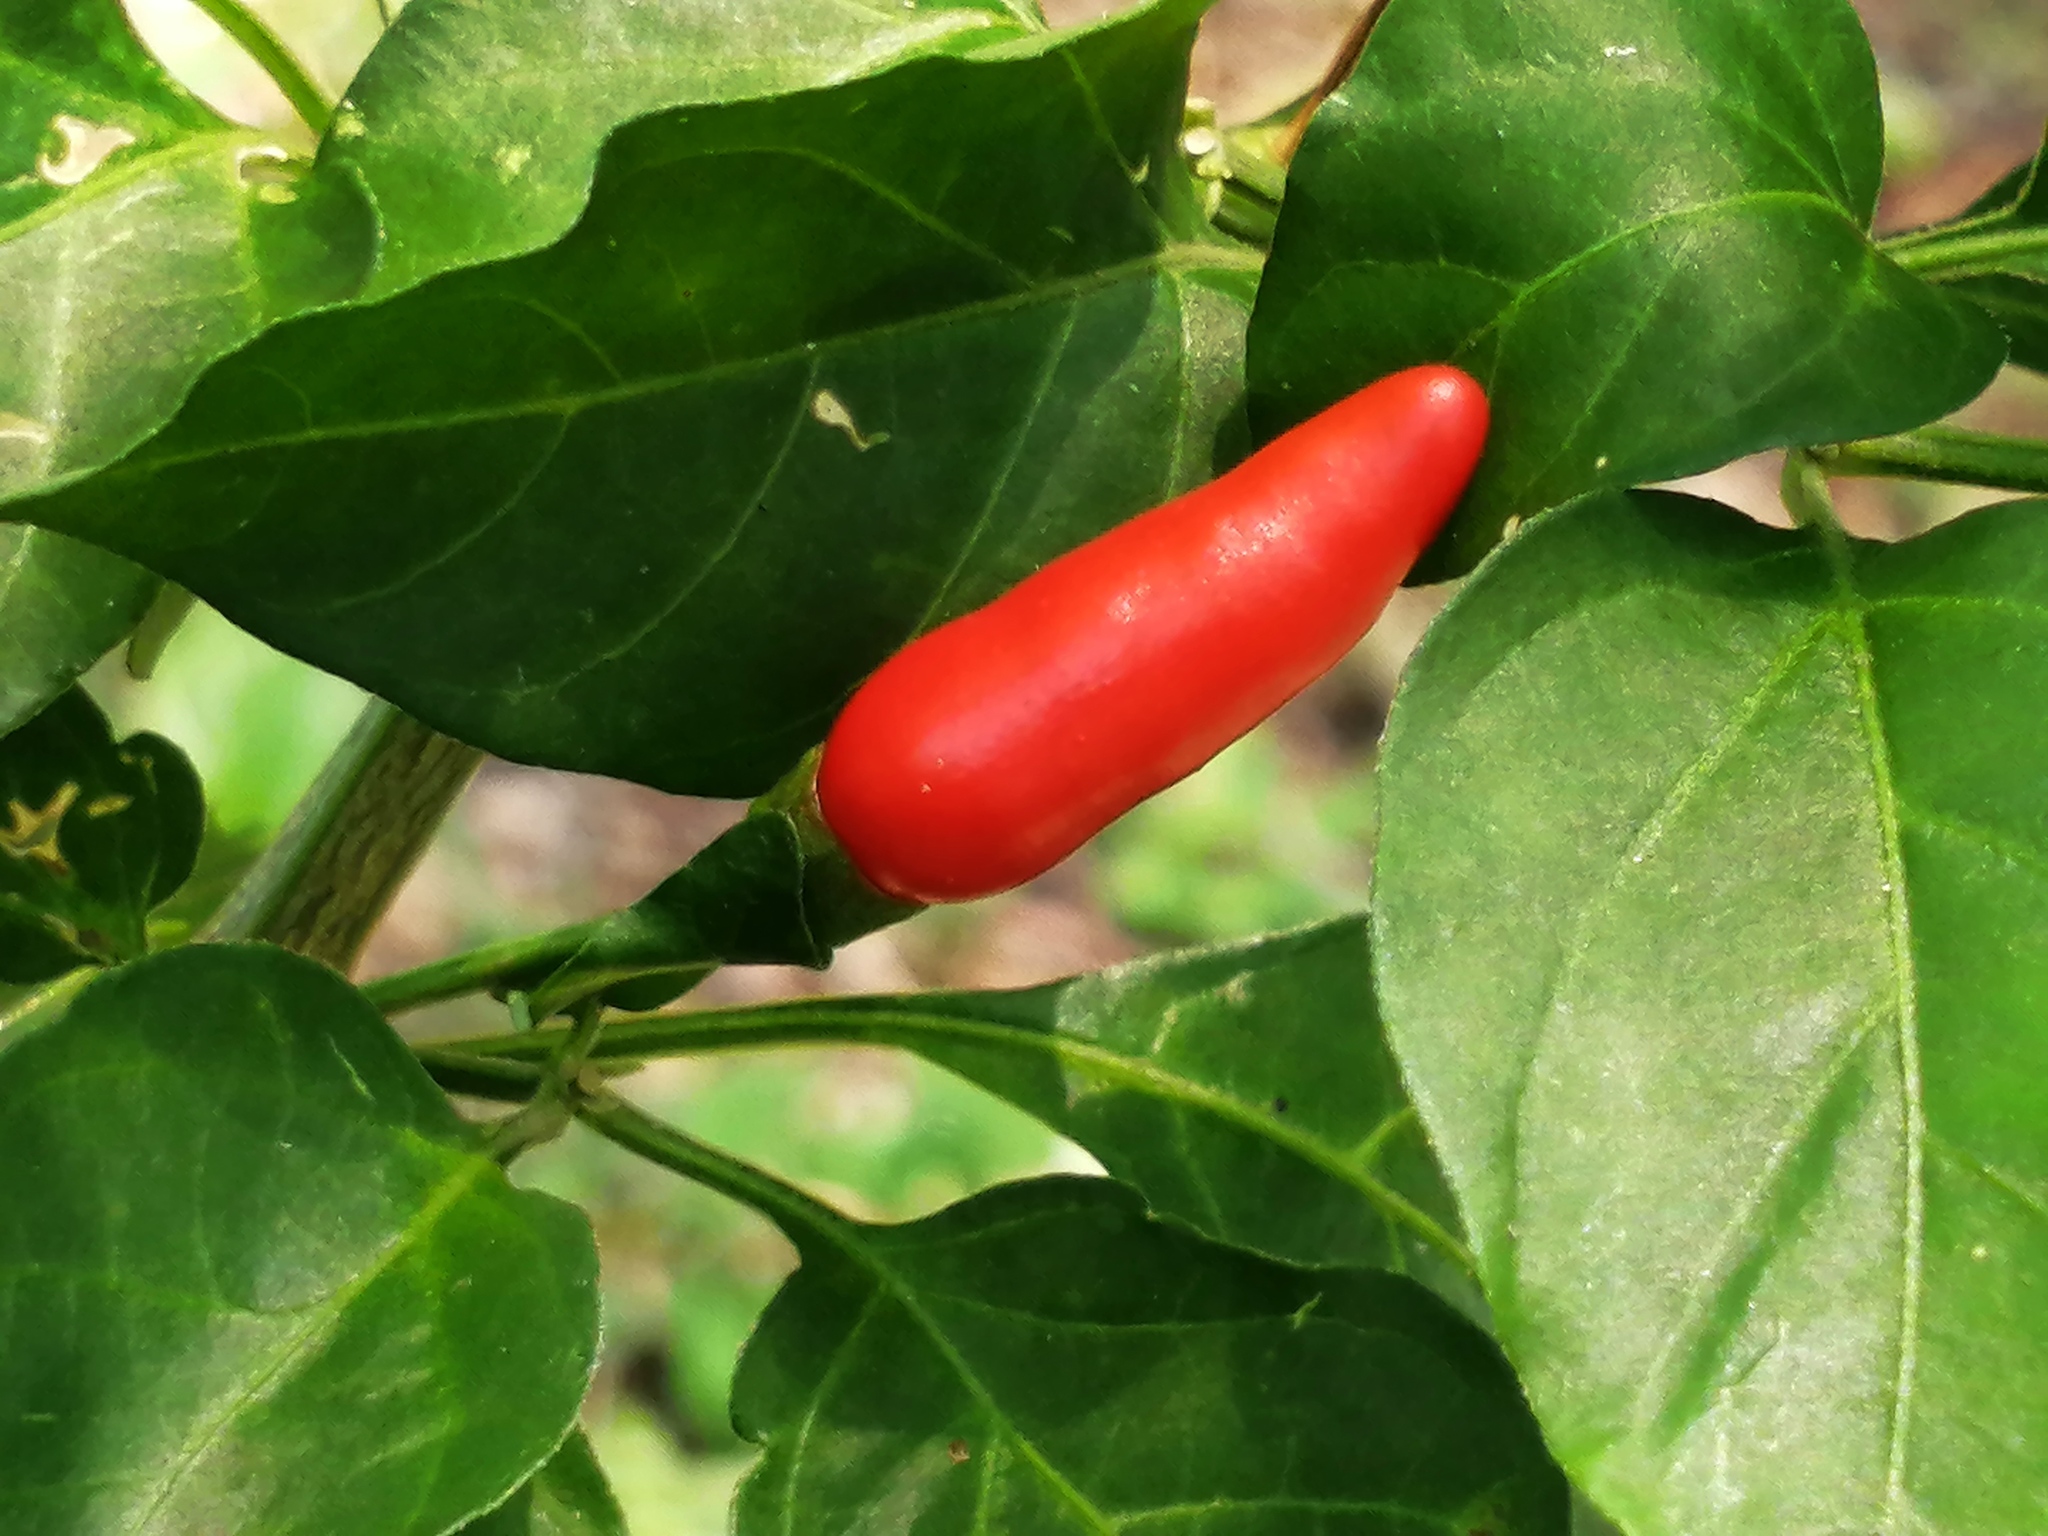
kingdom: Plantae
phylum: Tracheophyta
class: Magnoliopsida
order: Solanales
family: Solanaceae
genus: Capsicum
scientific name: Capsicum annuum
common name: Sweet pepper
